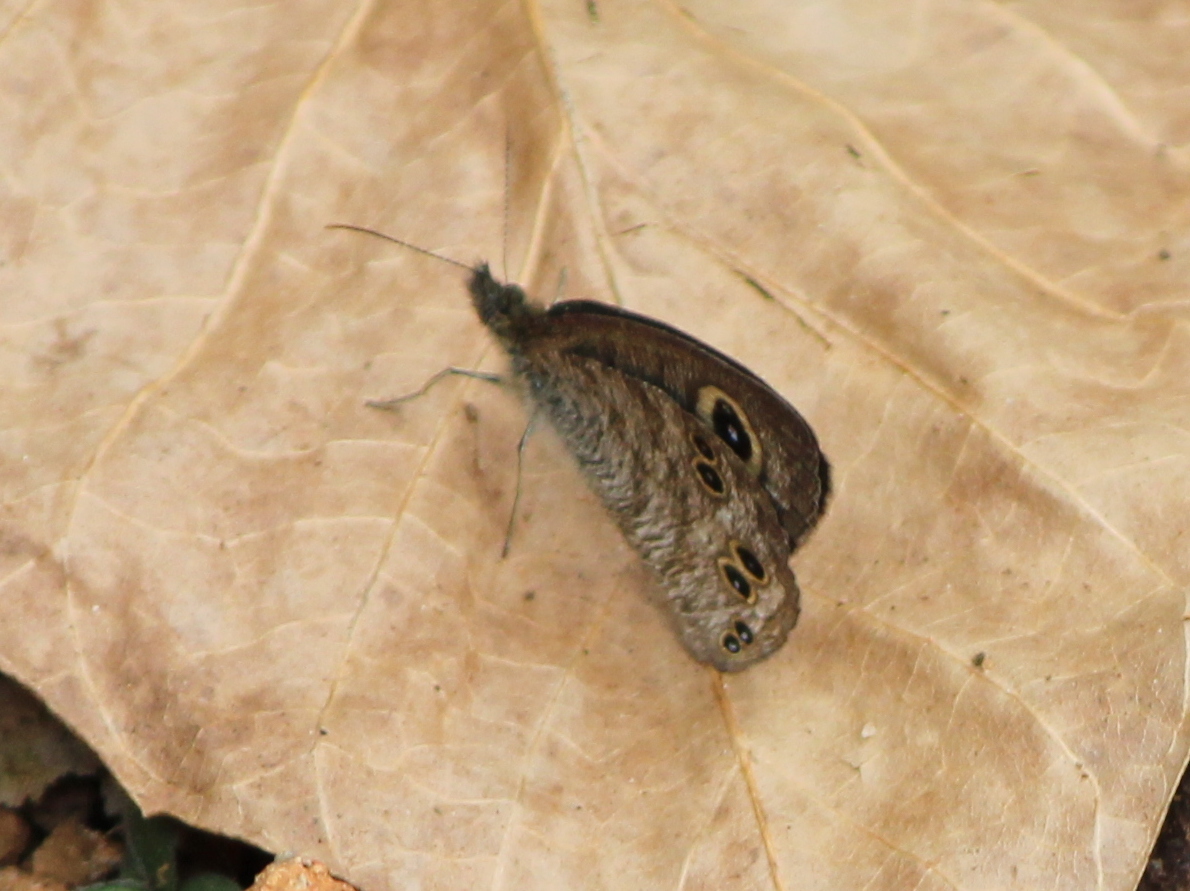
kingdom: Animalia
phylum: Arthropoda
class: Insecta
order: Lepidoptera
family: Nymphalidae
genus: Ypthima
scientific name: Ypthima baldus
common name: Common five-ring
